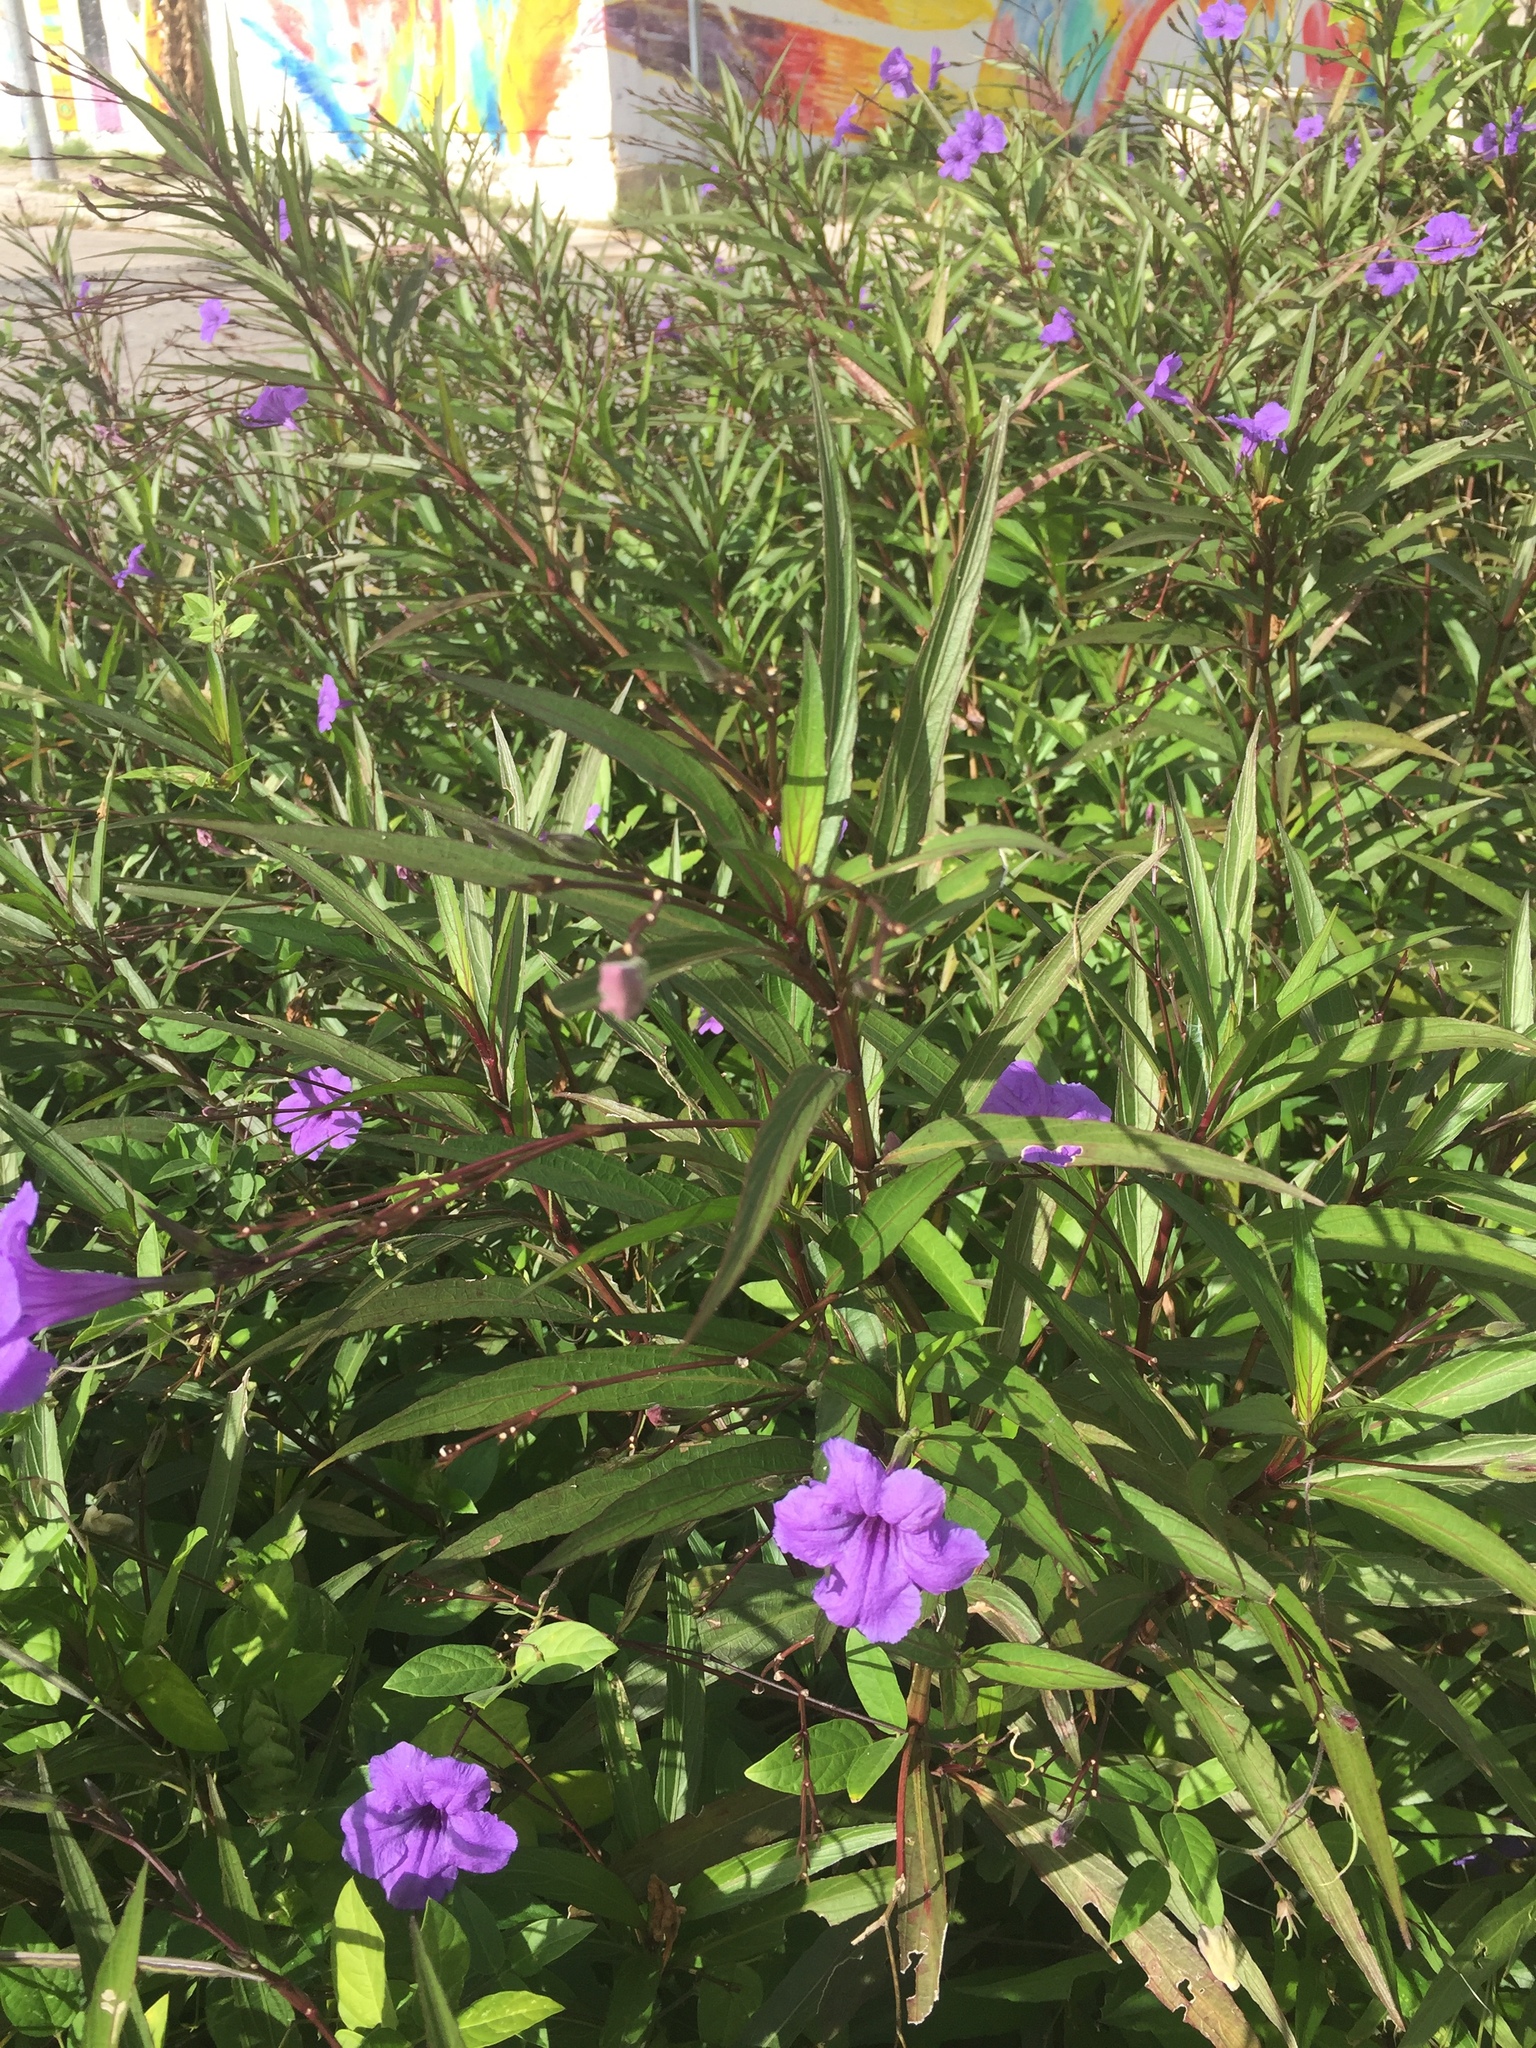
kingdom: Plantae
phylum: Tracheophyta
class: Magnoliopsida
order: Lamiales
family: Acanthaceae
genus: Ruellia
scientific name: Ruellia simplex
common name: Softseed wild petunia
